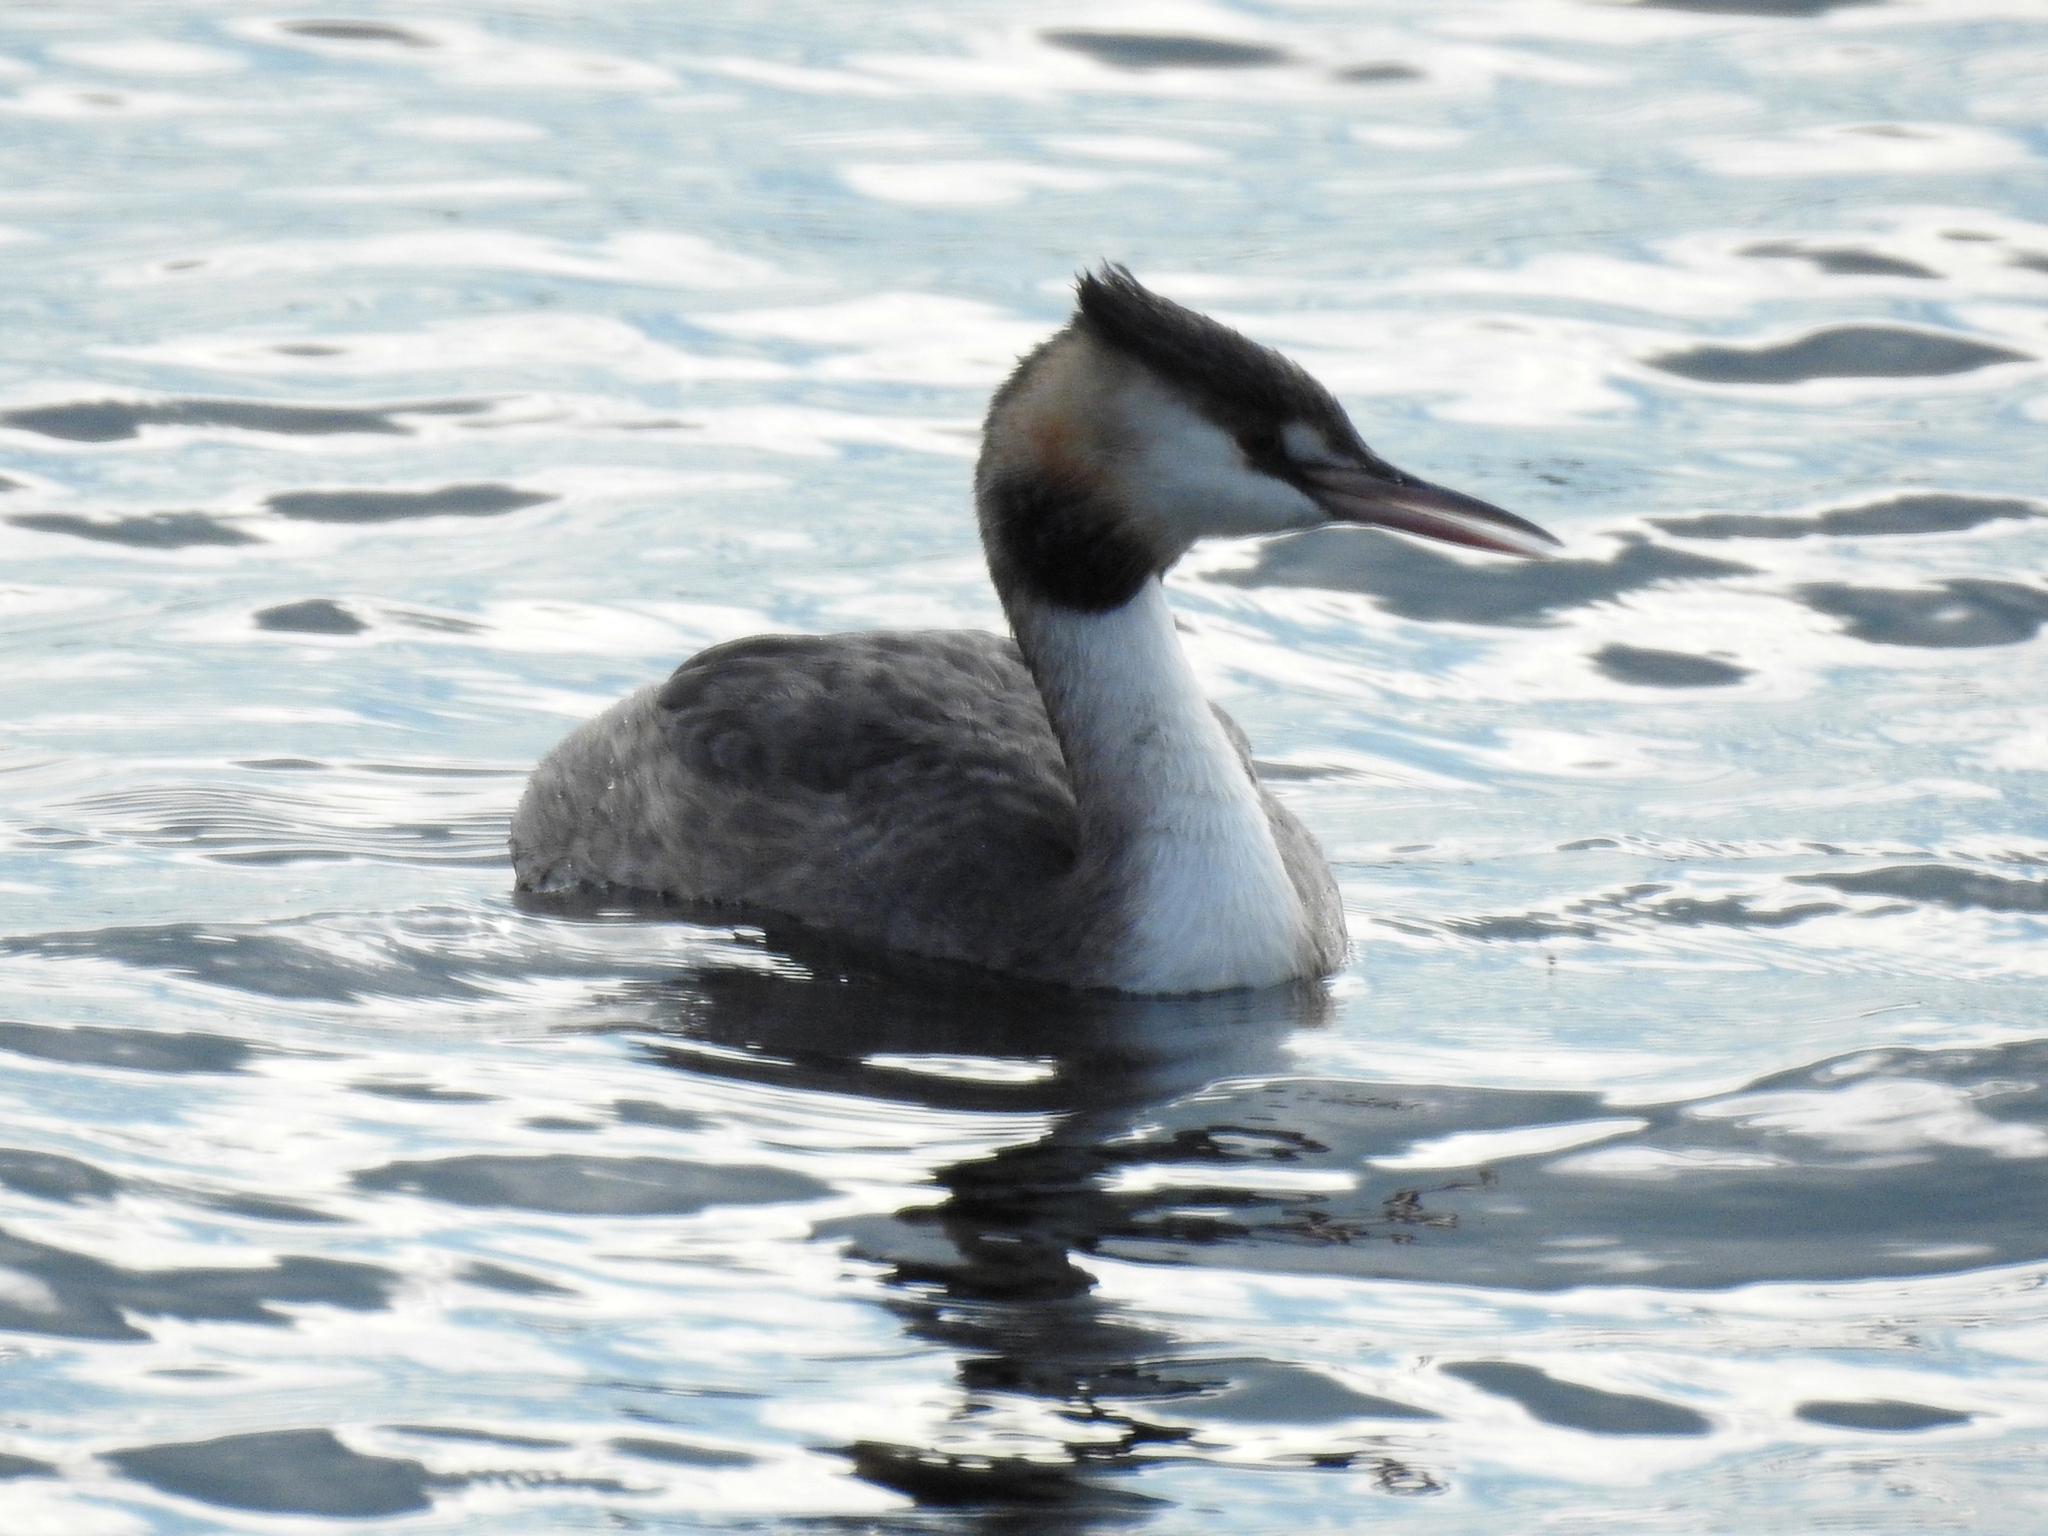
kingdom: Animalia
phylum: Chordata
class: Aves
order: Podicipediformes
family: Podicipedidae
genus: Podiceps
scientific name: Podiceps cristatus
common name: Great crested grebe
